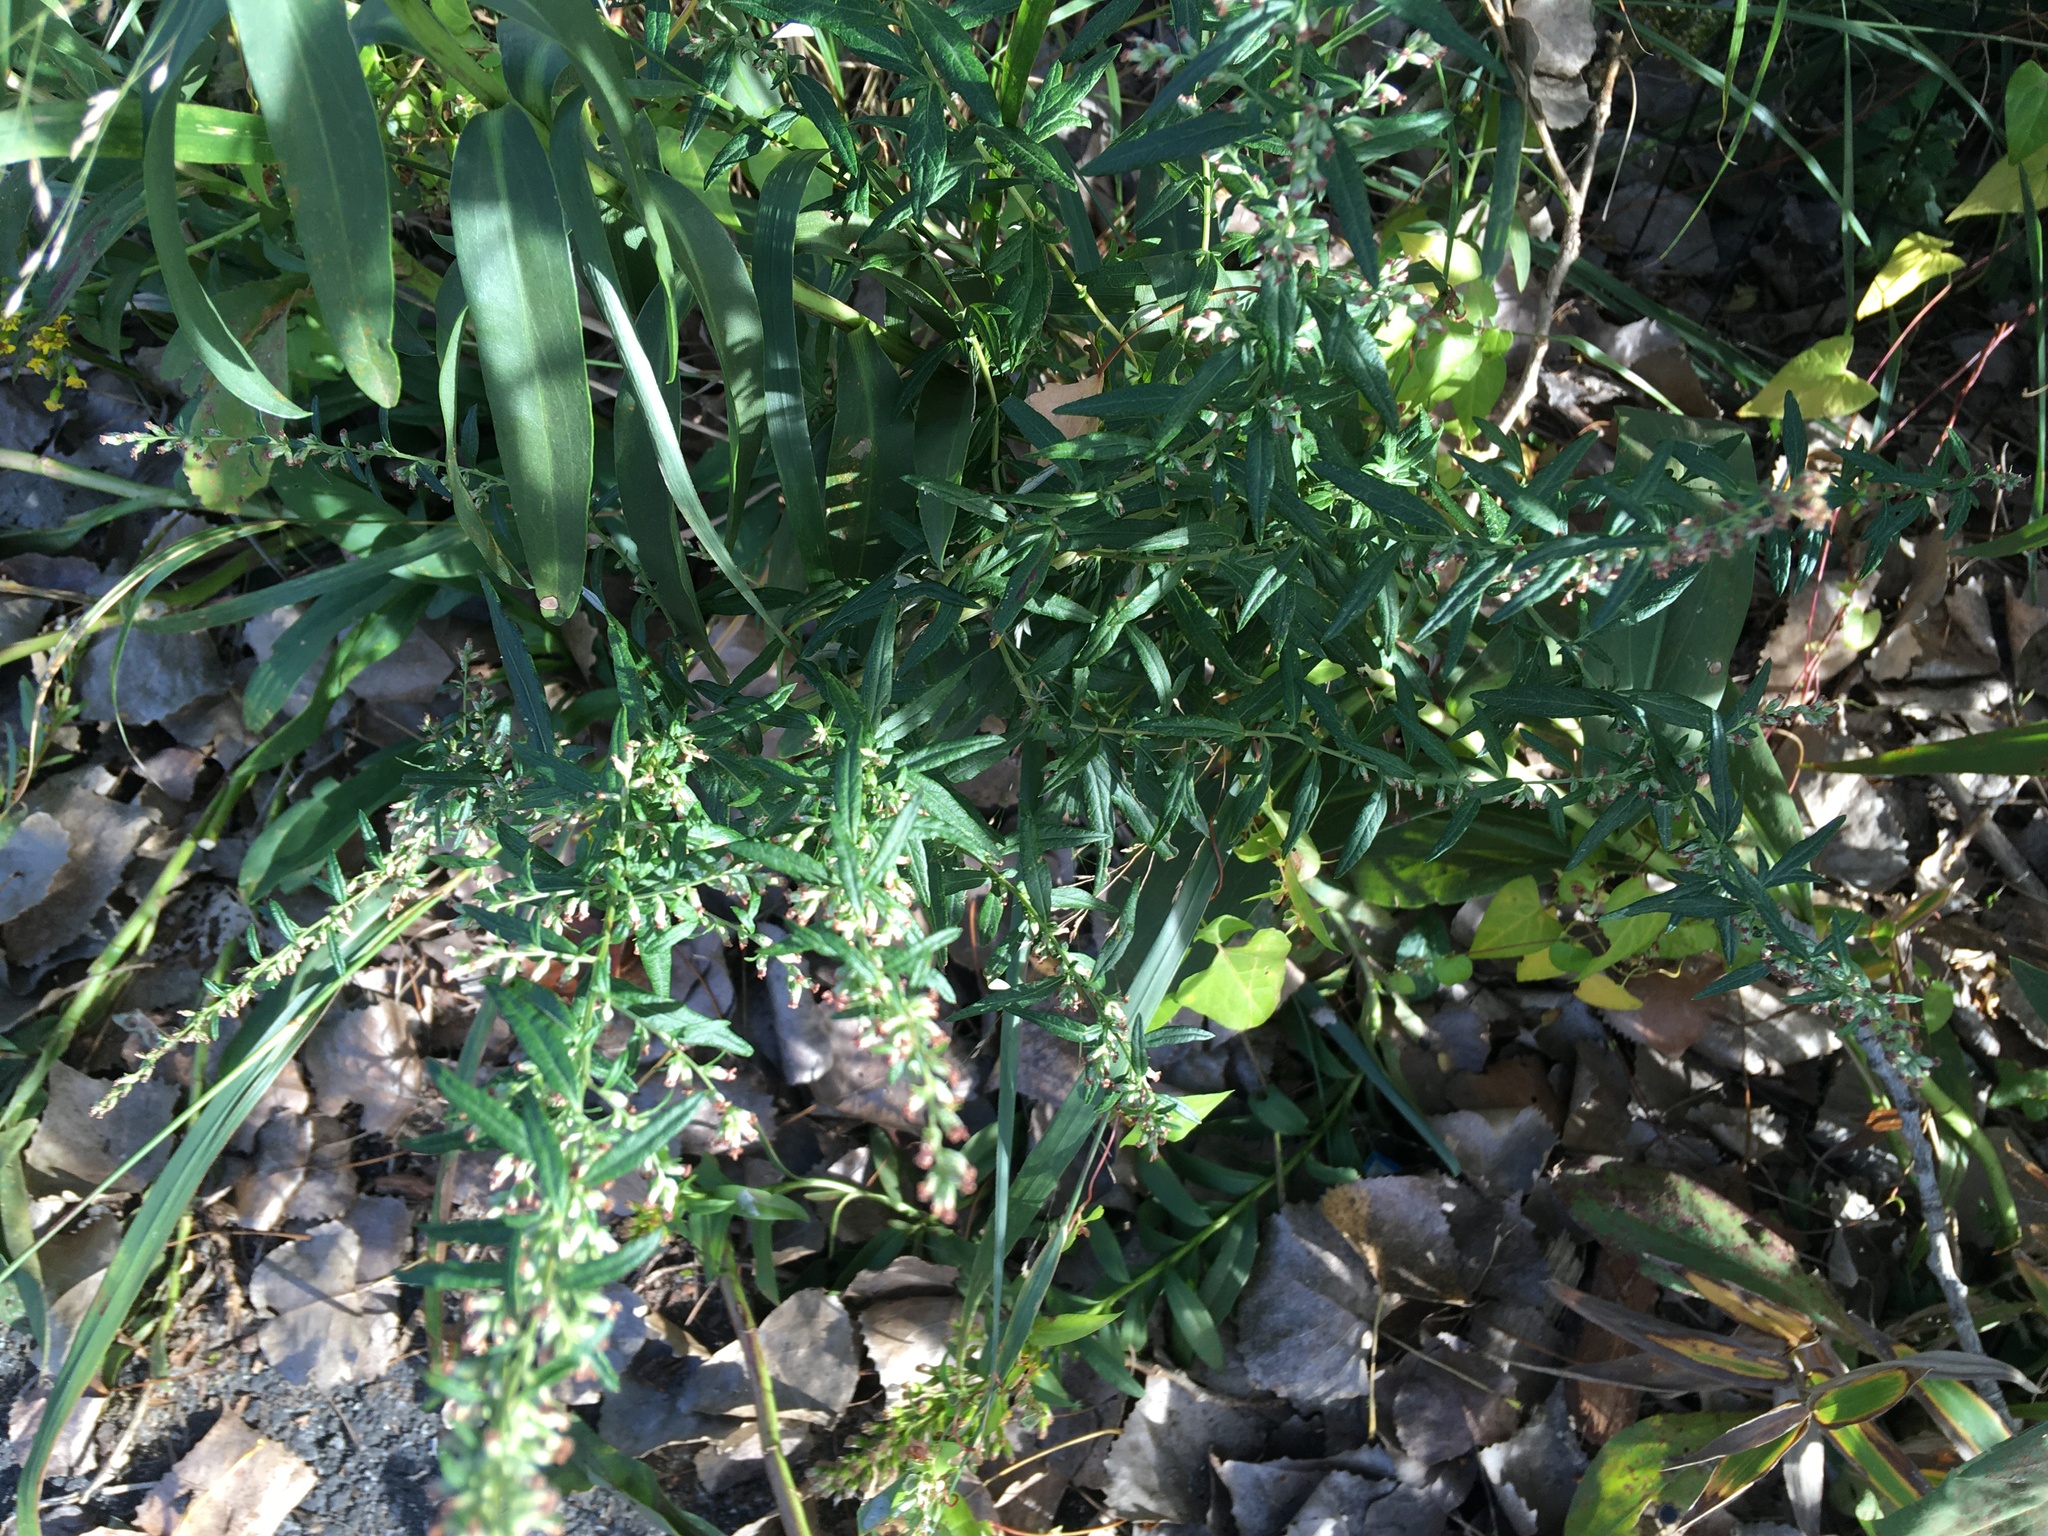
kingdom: Plantae
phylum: Tracheophyta
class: Magnoliopsida
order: Asterales
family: Asteraceae
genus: Artemisia
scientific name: Artemisia vulgaris
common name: Mugwort
